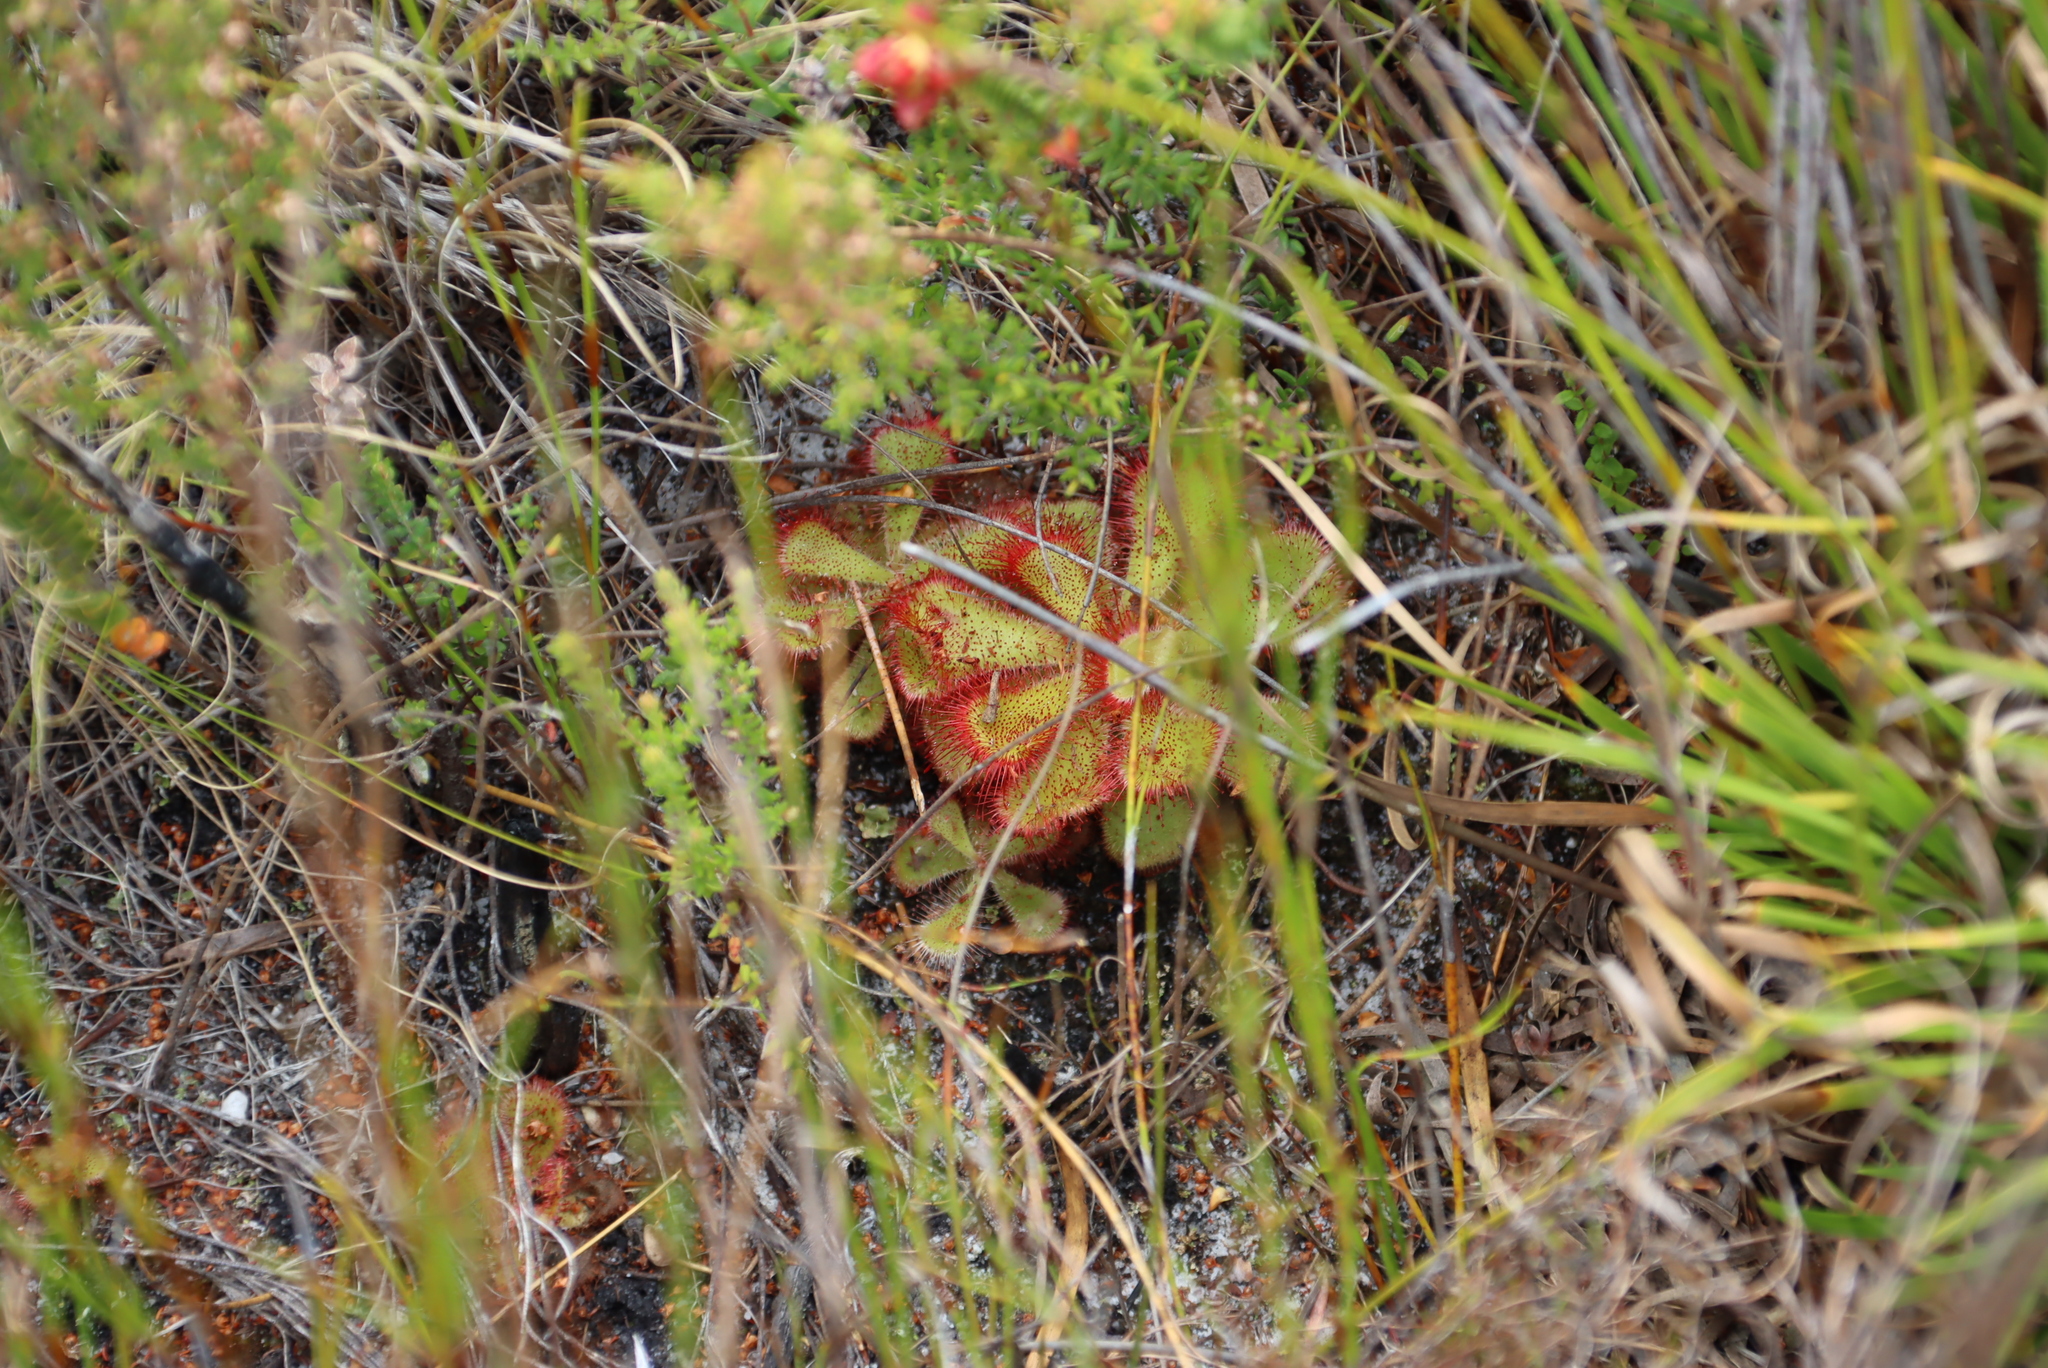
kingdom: Plantae
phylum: Tracheophyta
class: Magnoliopsida
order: Caryophyllales
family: Droseraceae
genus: Drosera
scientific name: Drosera cuneifolia
